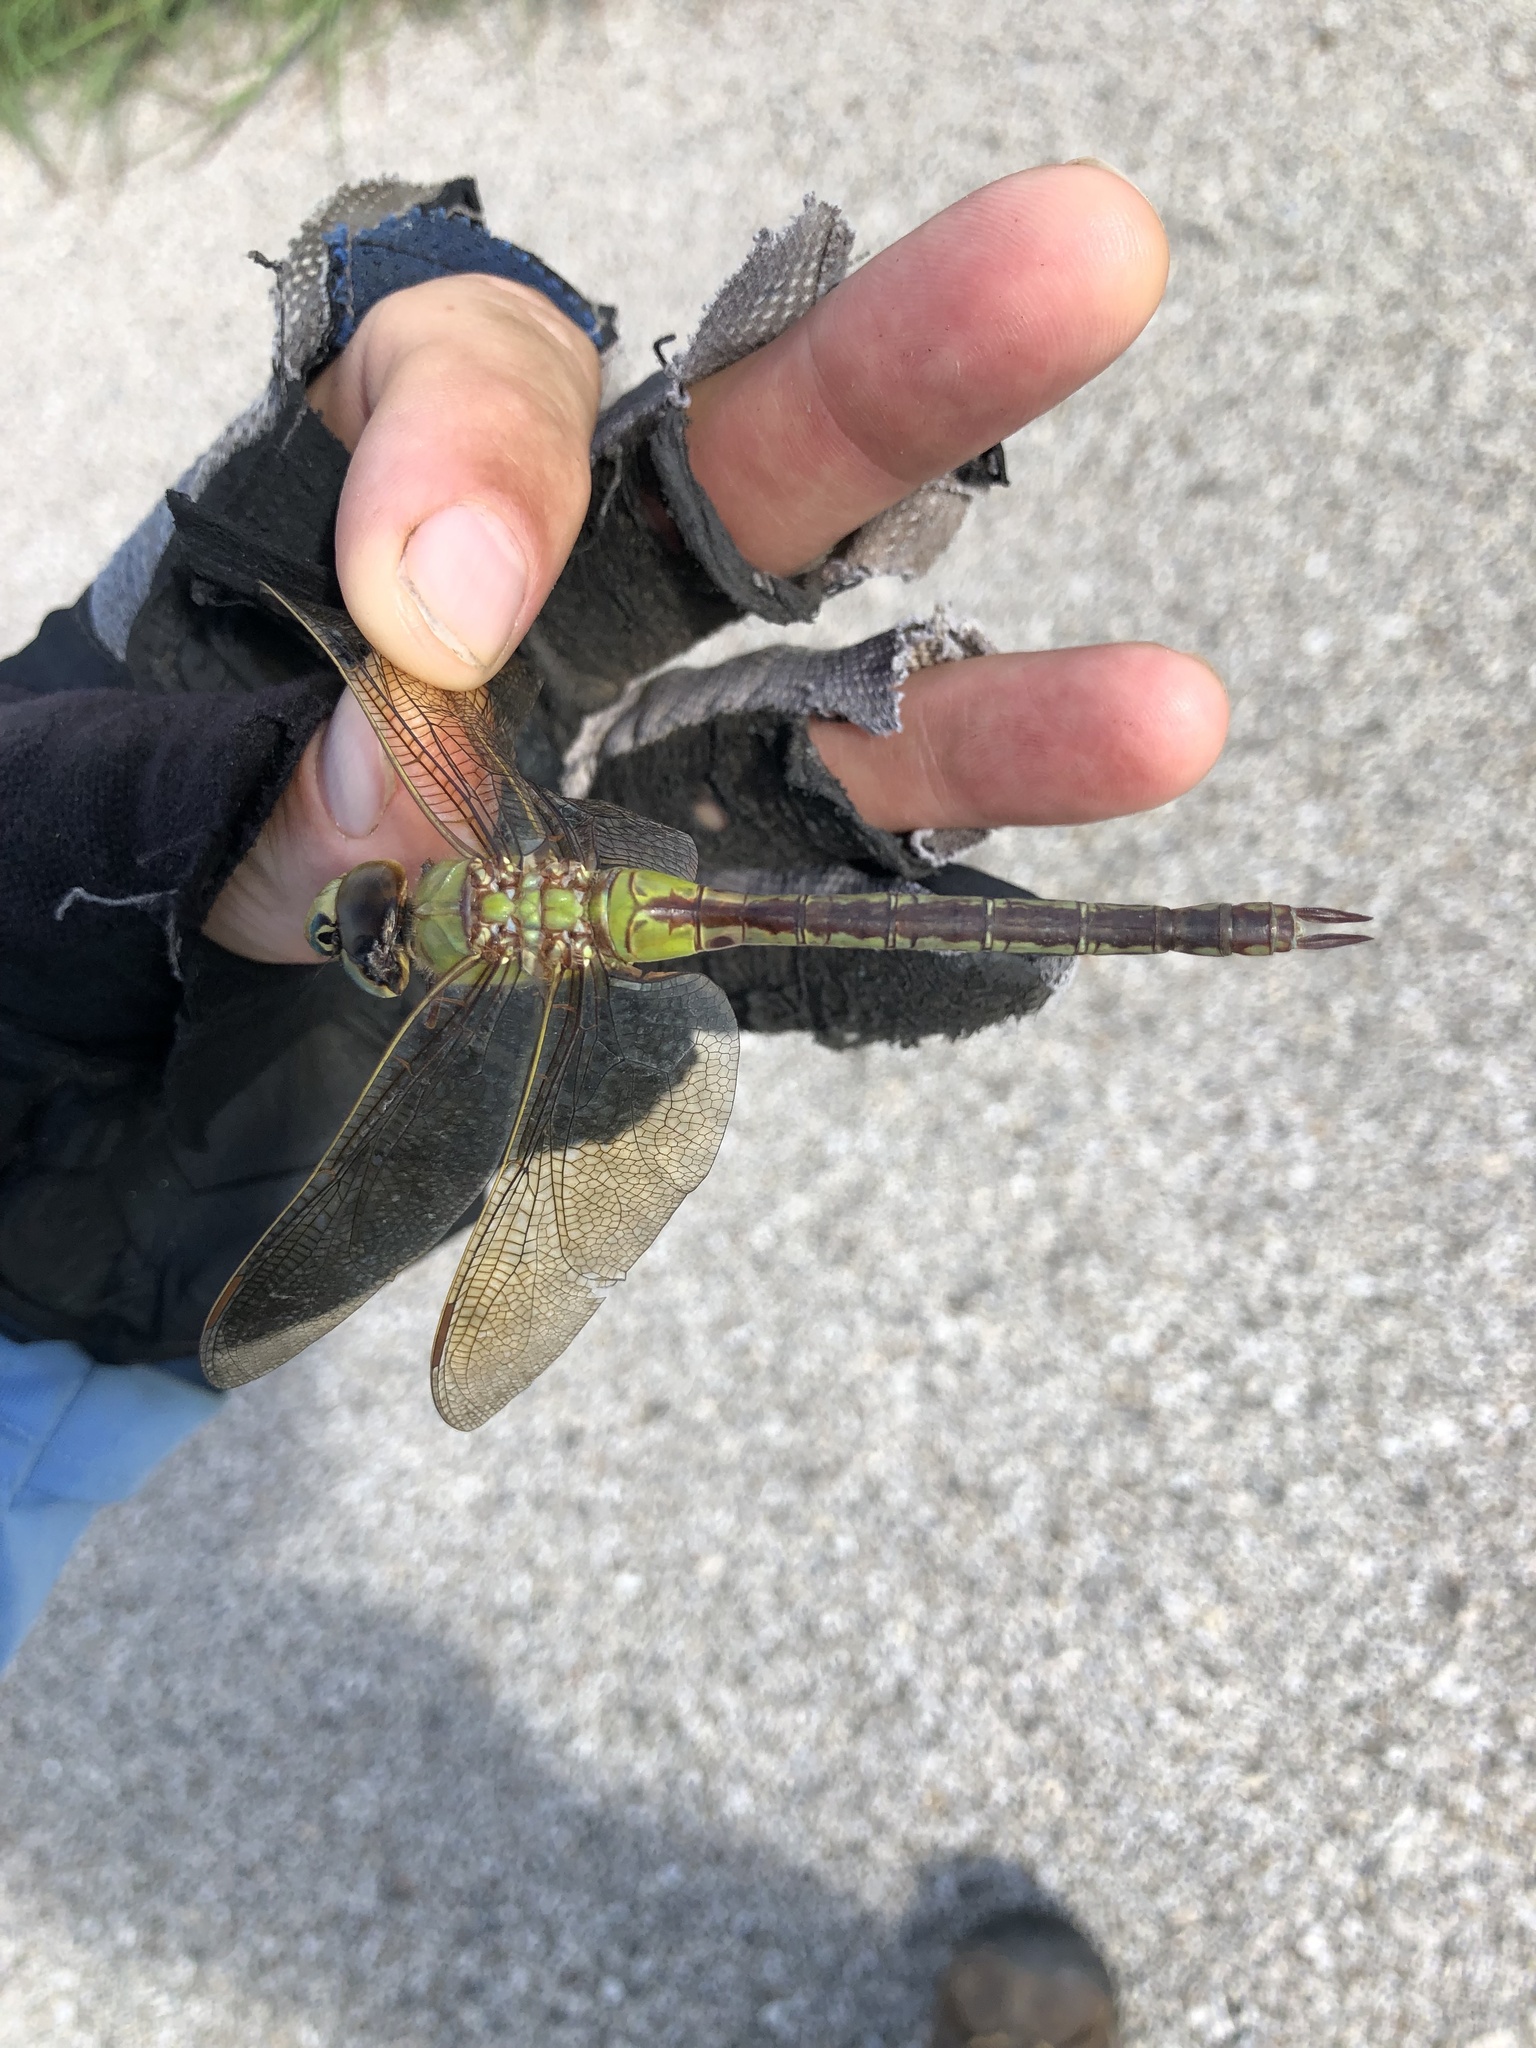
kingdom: Animalia
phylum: Arthropoda
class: Insecta
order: Odonata
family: Aeshnidae
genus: Anax
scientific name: Anax junius
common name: Common green darner
